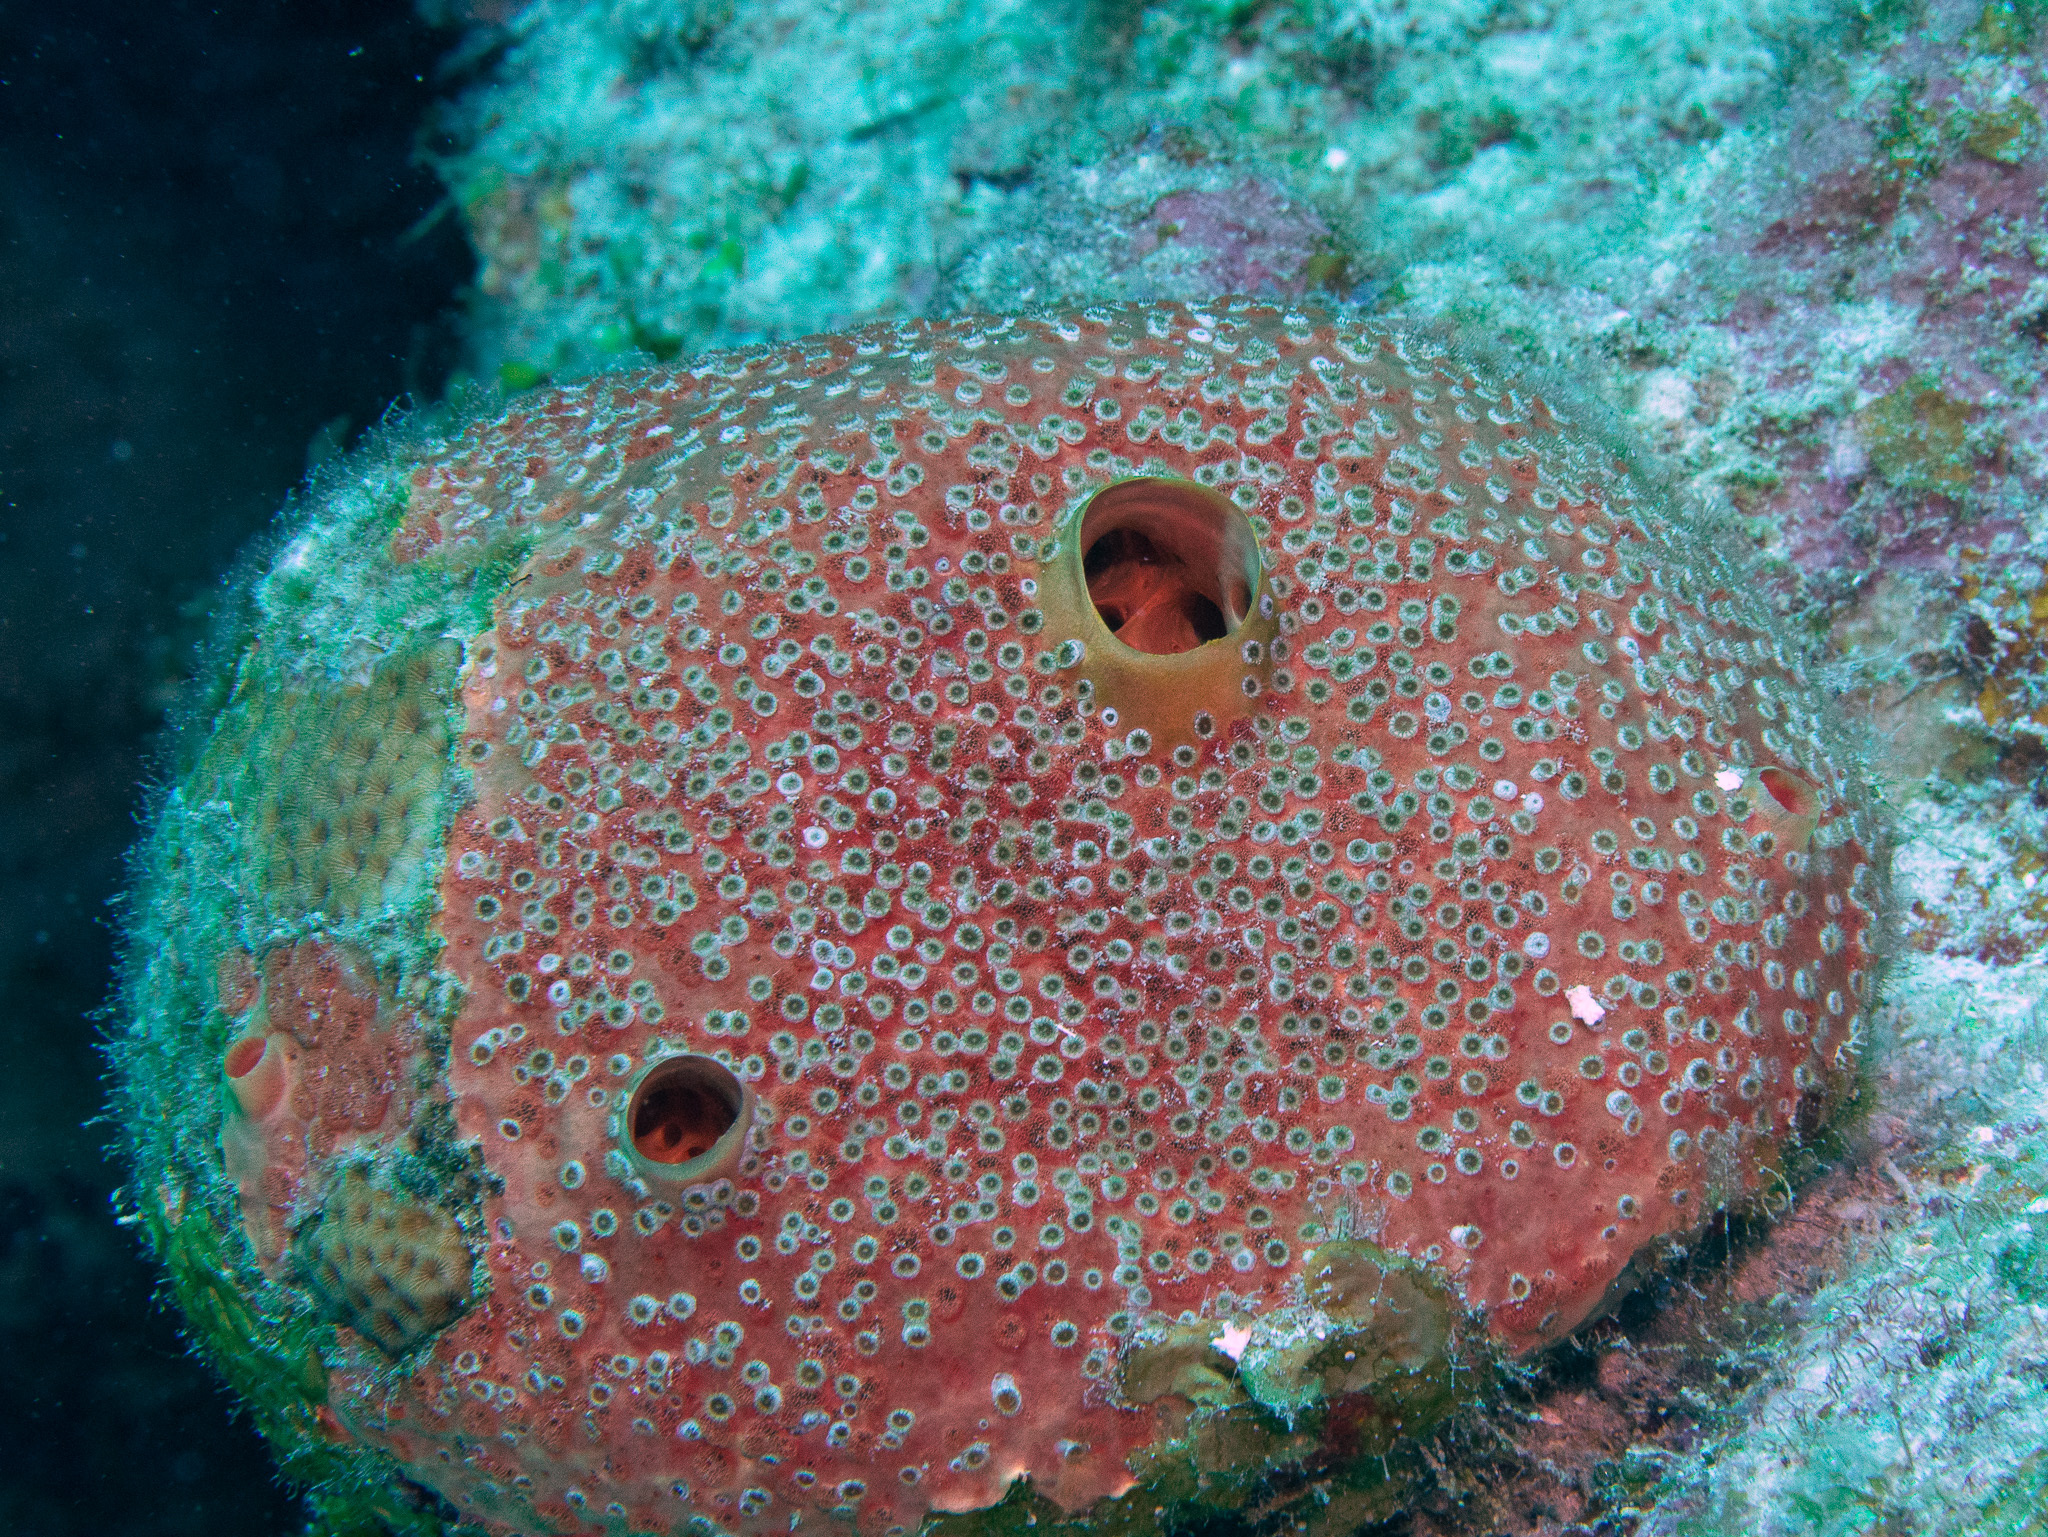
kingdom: Animalia
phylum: Porifera
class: Demospongiae
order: Clionaida
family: Clionaidae
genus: Cliothosa
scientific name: Cliothosa delitrix
